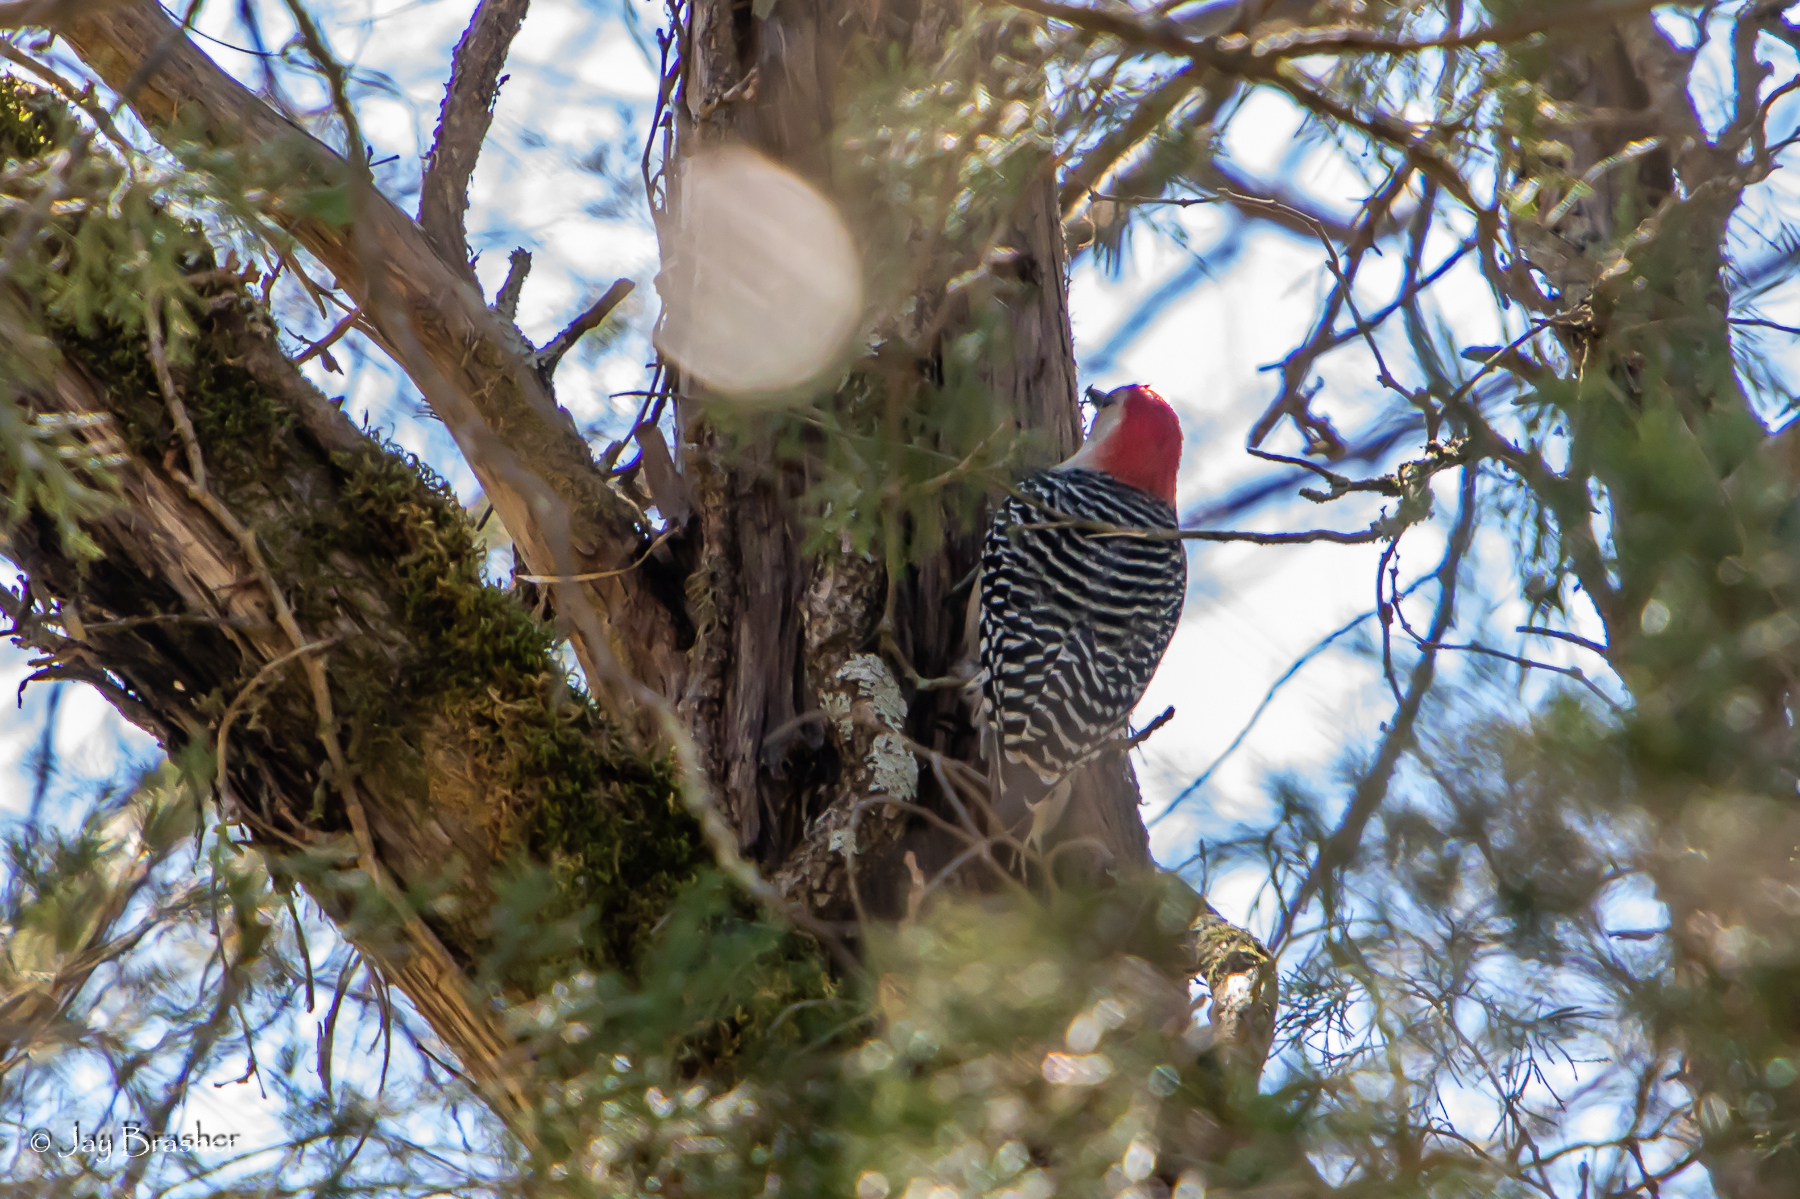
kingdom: Animalia
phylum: Chordata
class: Aves
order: Piciformes
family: Picidae
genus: Melanerpes
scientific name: Melanerpes carolinus
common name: Red-bellied woodpecker
